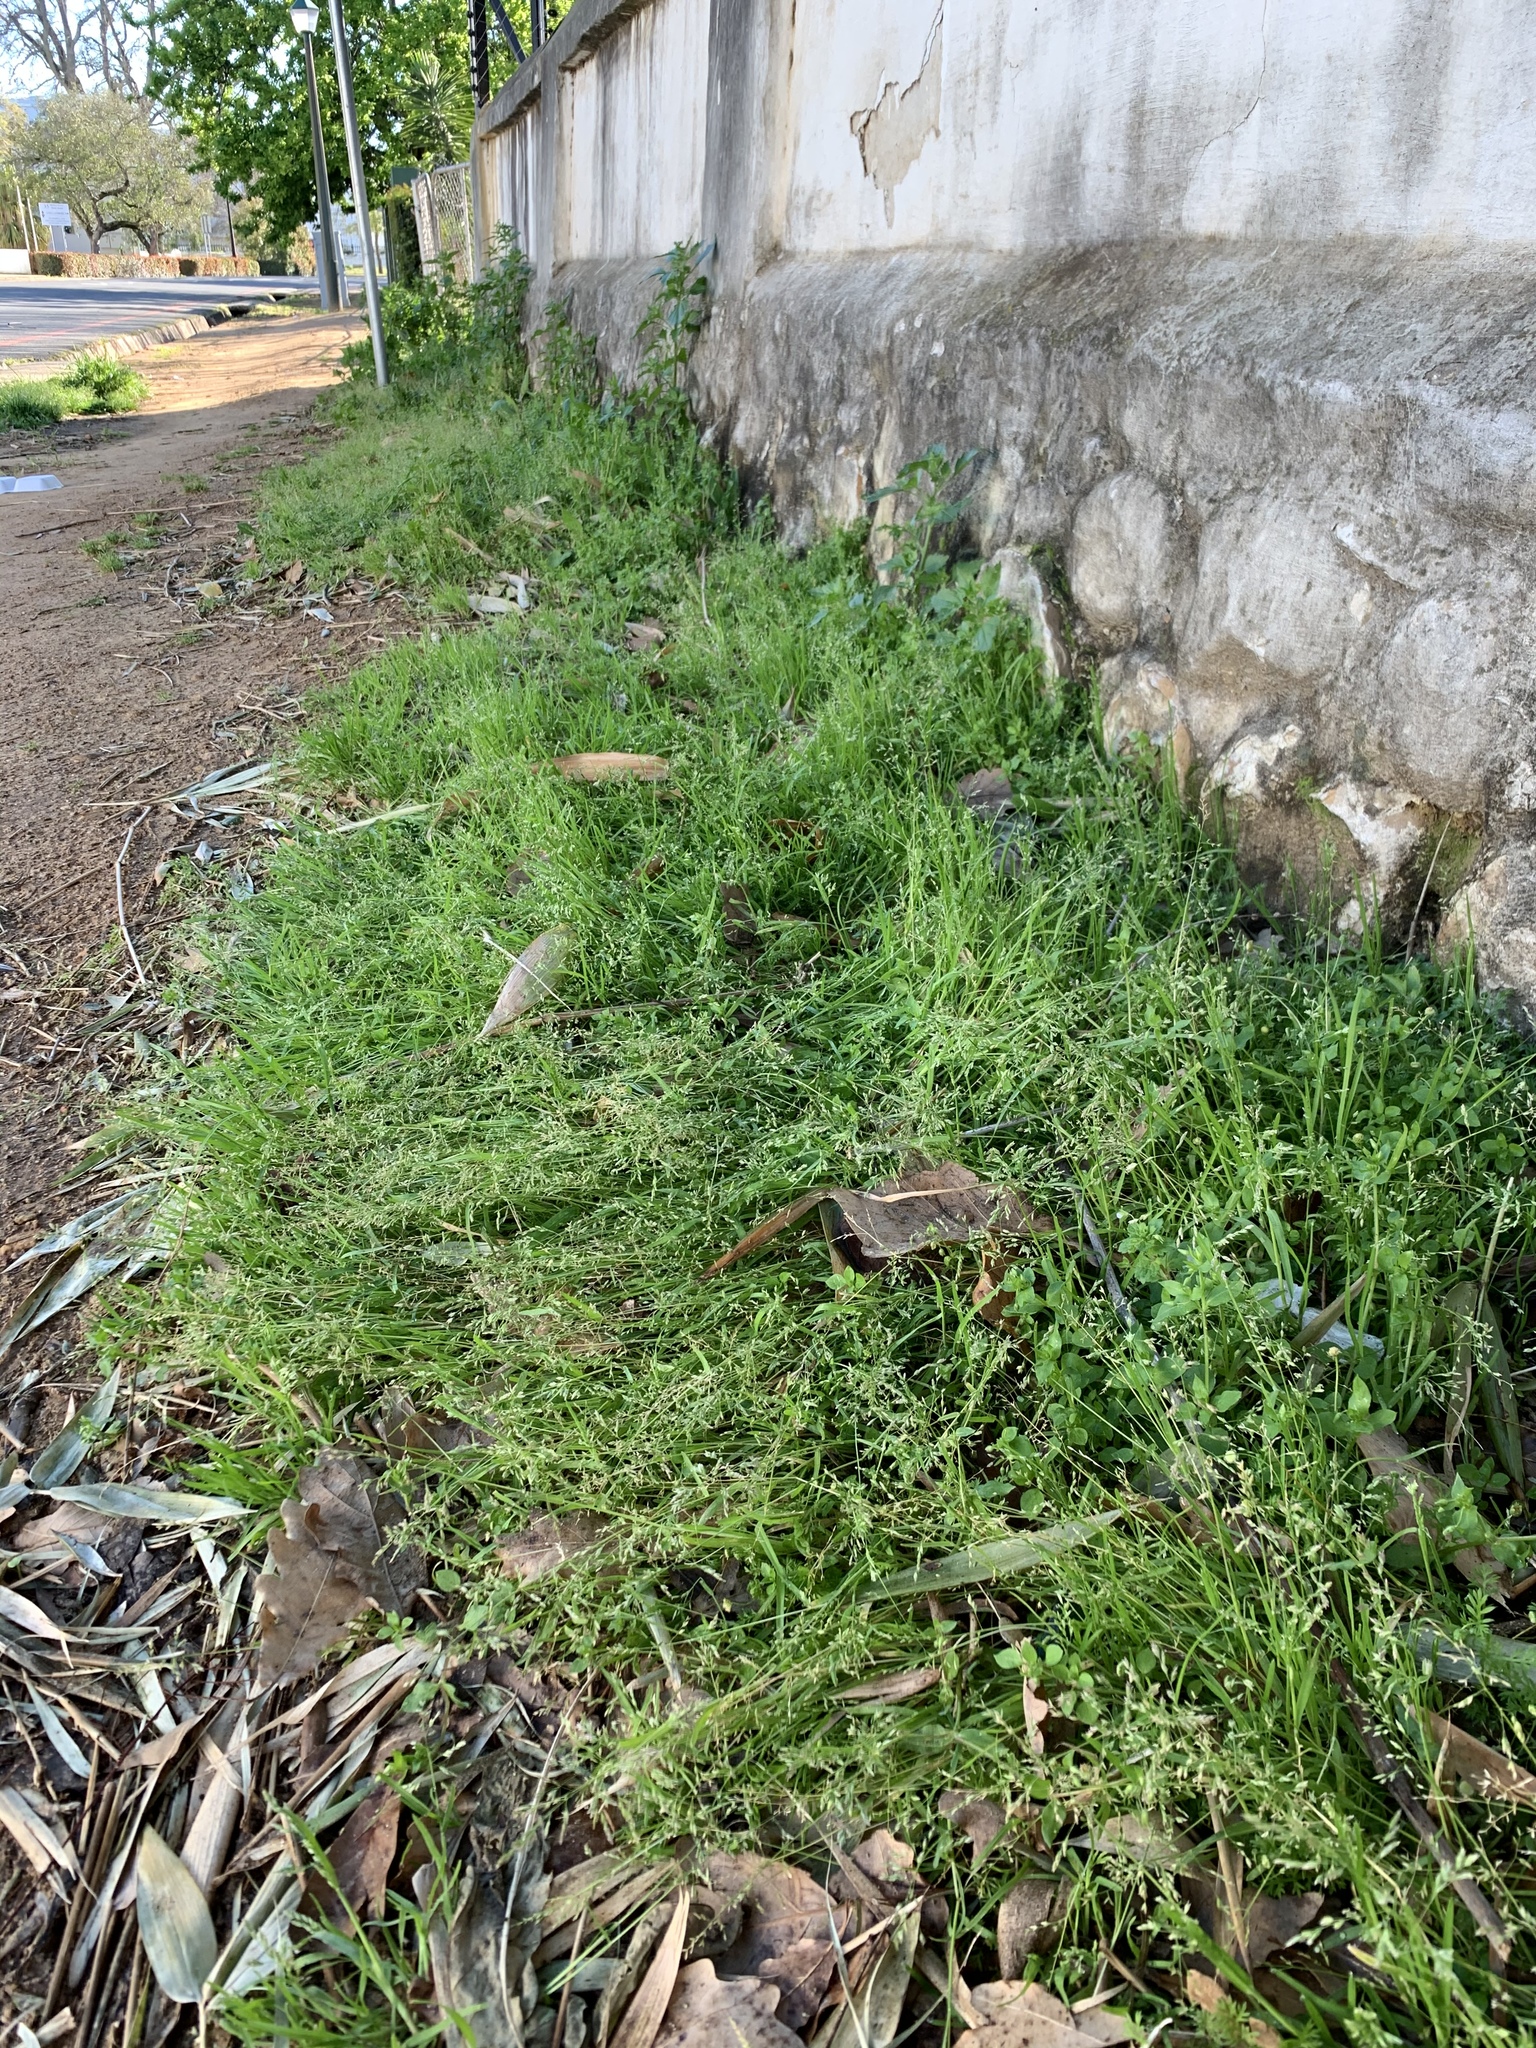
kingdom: Plantae
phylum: Tracheophyta
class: Liliopsida
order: Poales
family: Poaceae
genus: Poa
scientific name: Poa annua
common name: Annual bluegrass
